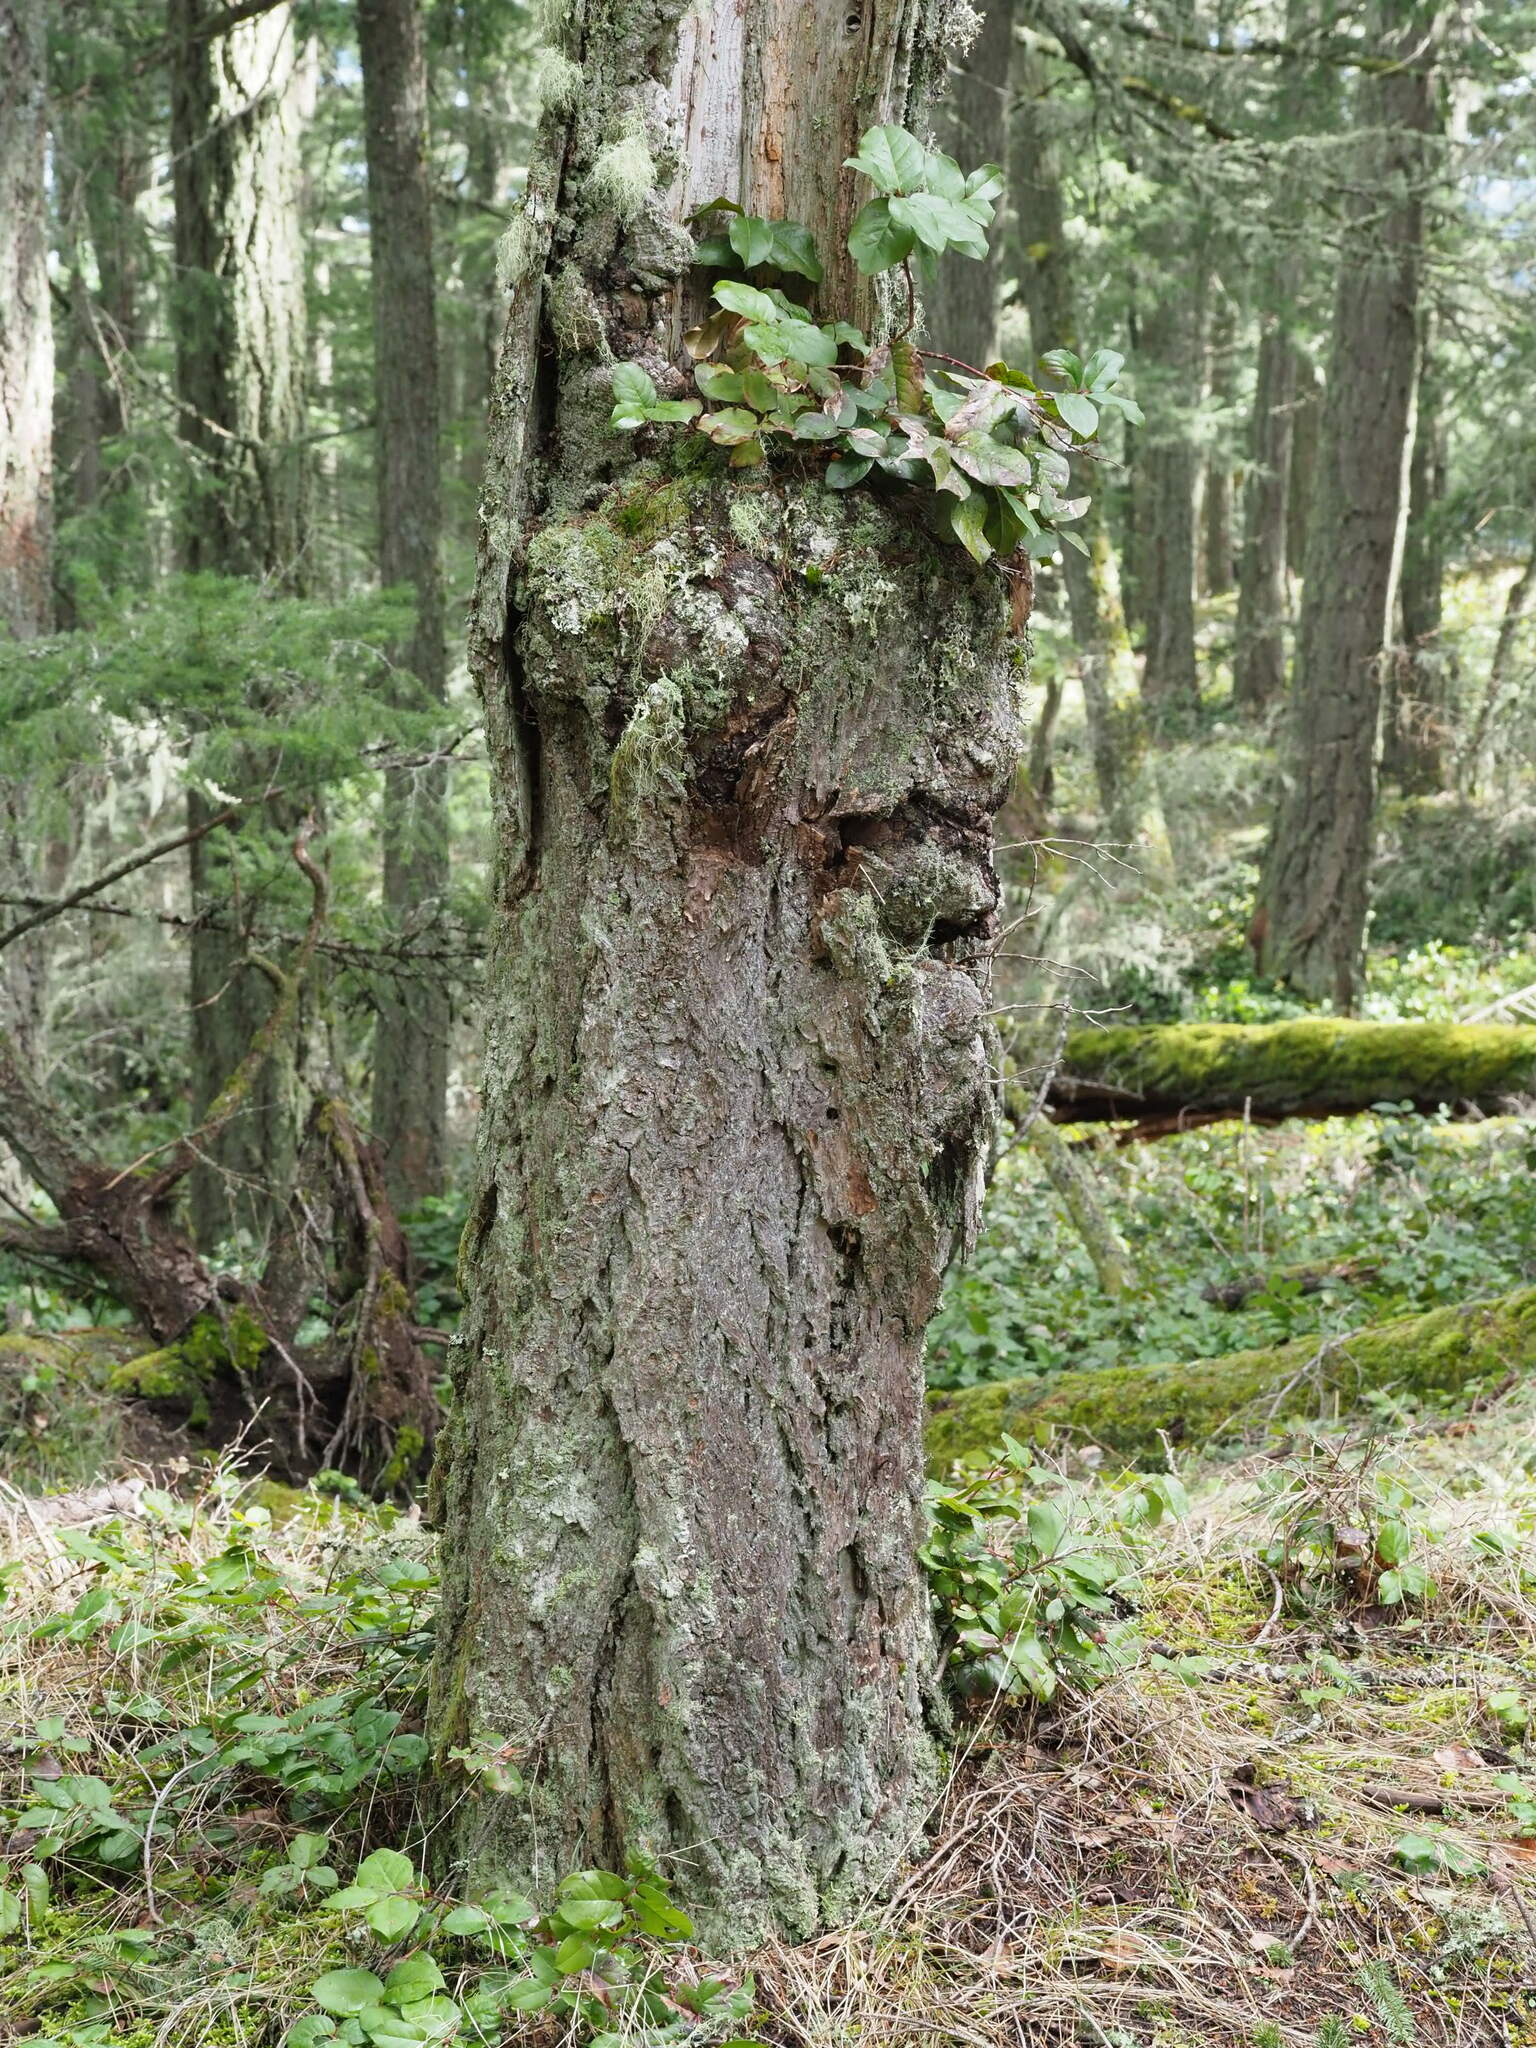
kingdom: Plantae
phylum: Tracheophyta
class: Magnoliopsida
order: Ericales
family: Ericaceae
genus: Gaultheria
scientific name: Gaultheria shallon
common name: Shallon
